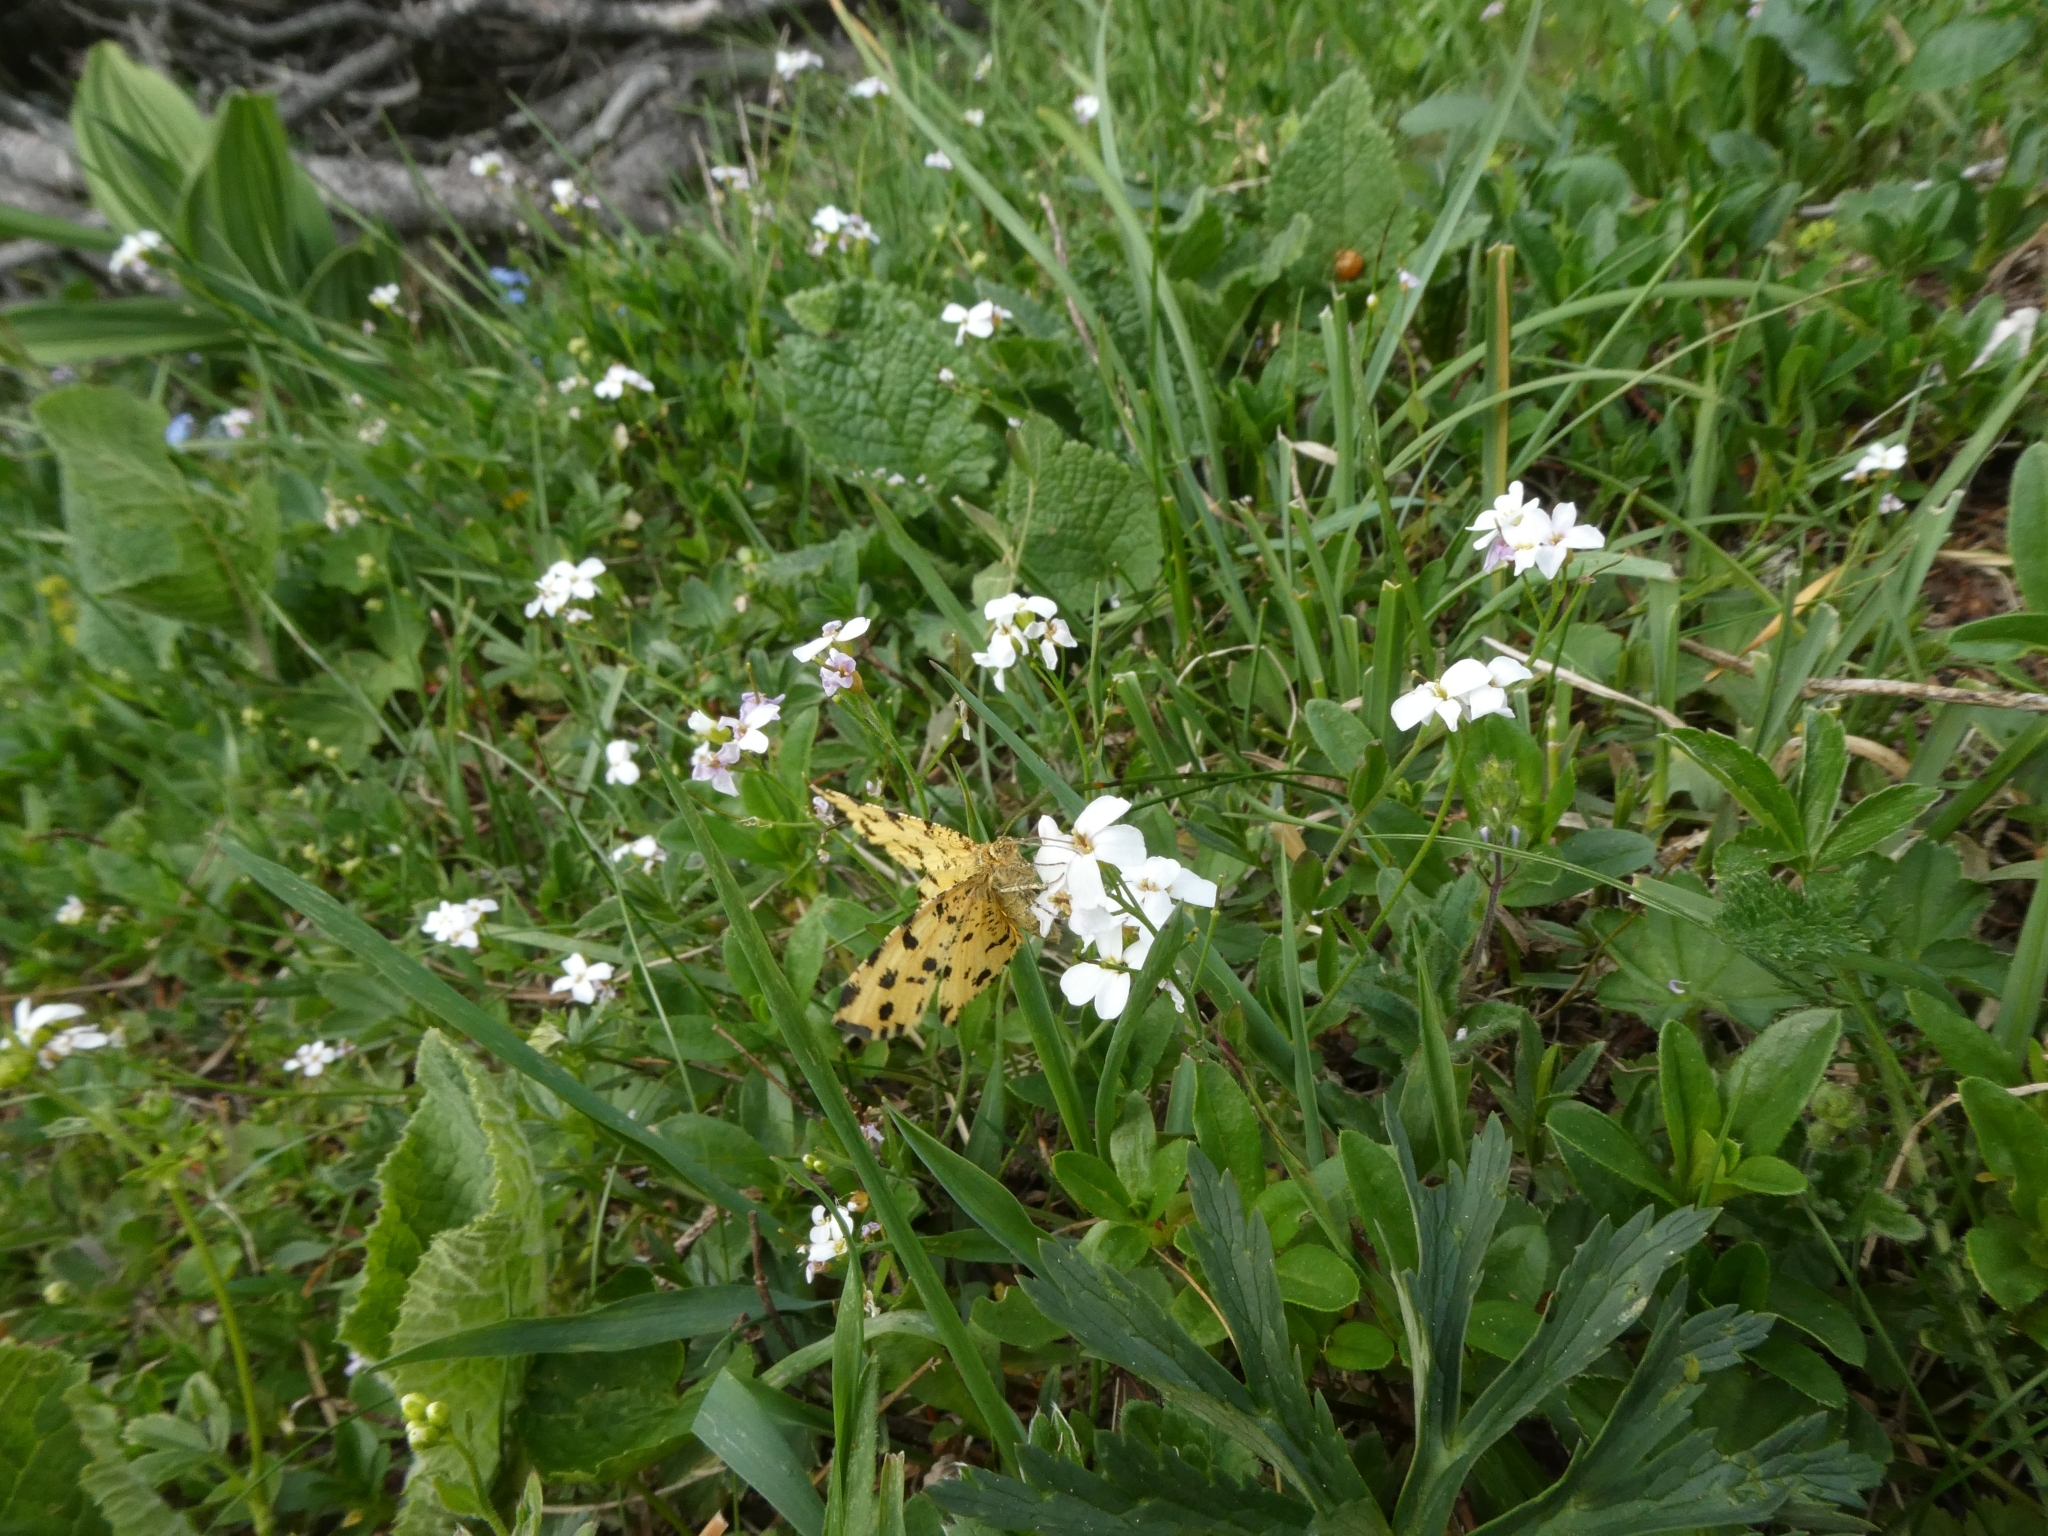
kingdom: Animalia
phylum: Arthropoda
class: Insecta
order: Lepidoptera
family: Geometridae
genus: Pseudopanthera
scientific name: Pseudopanthera macularia
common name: Speckled yellow
